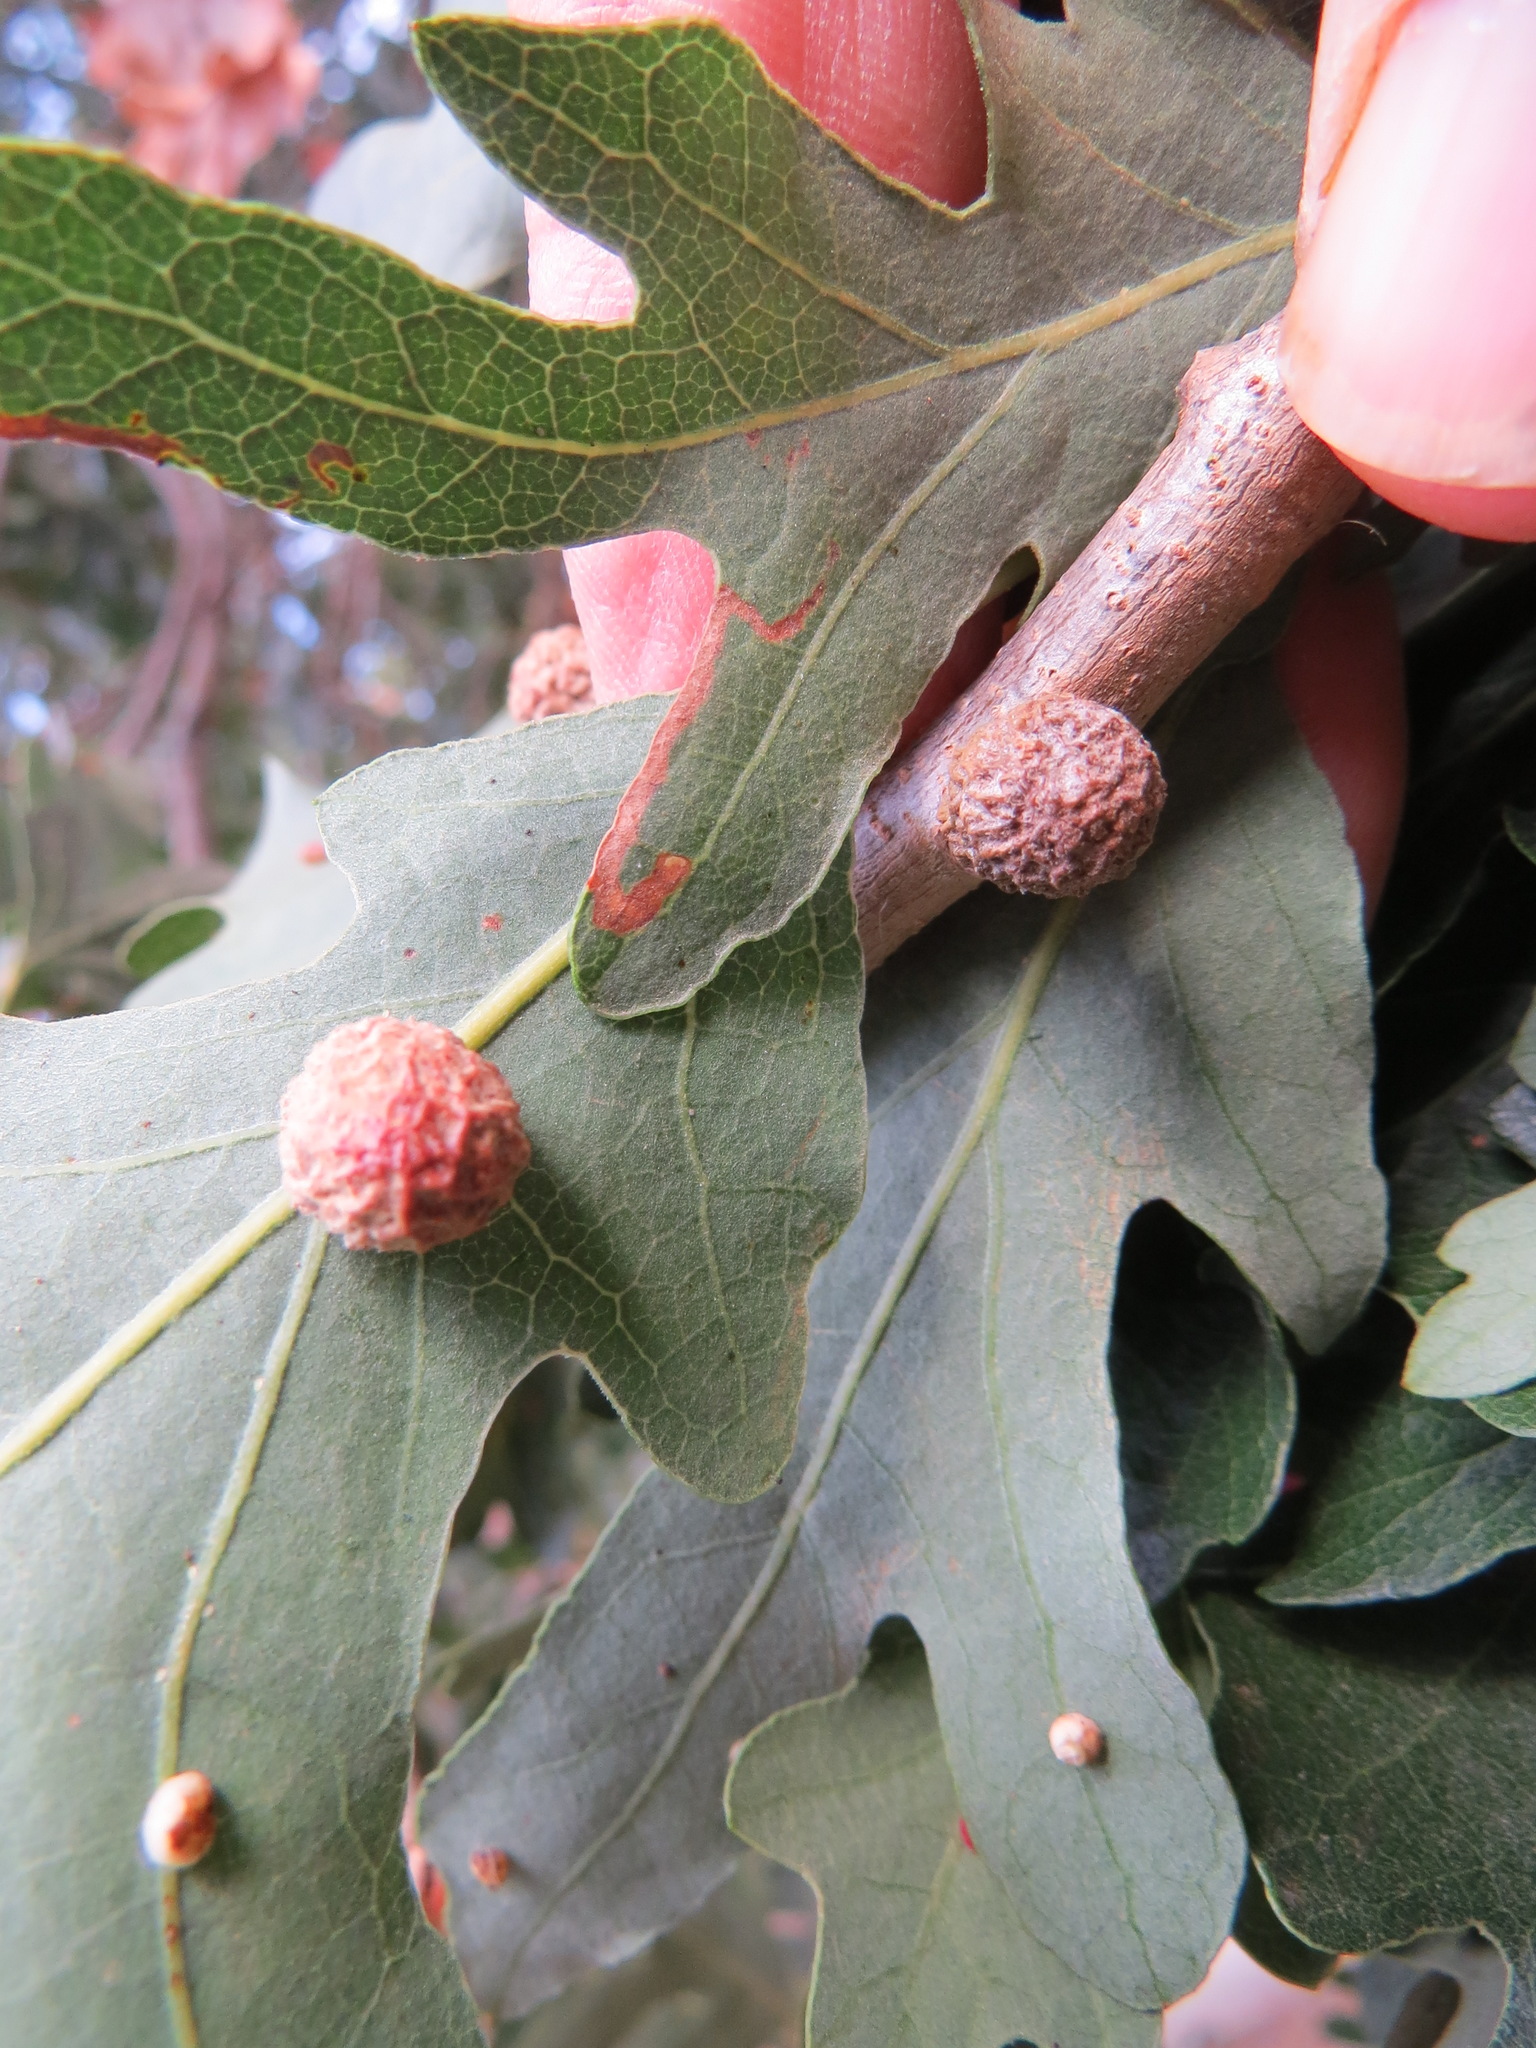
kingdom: Animalia
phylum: Arthropoda
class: Insecta
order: Hymenoptera
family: Cynipidae
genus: Cynips
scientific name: Cynips conspicua
